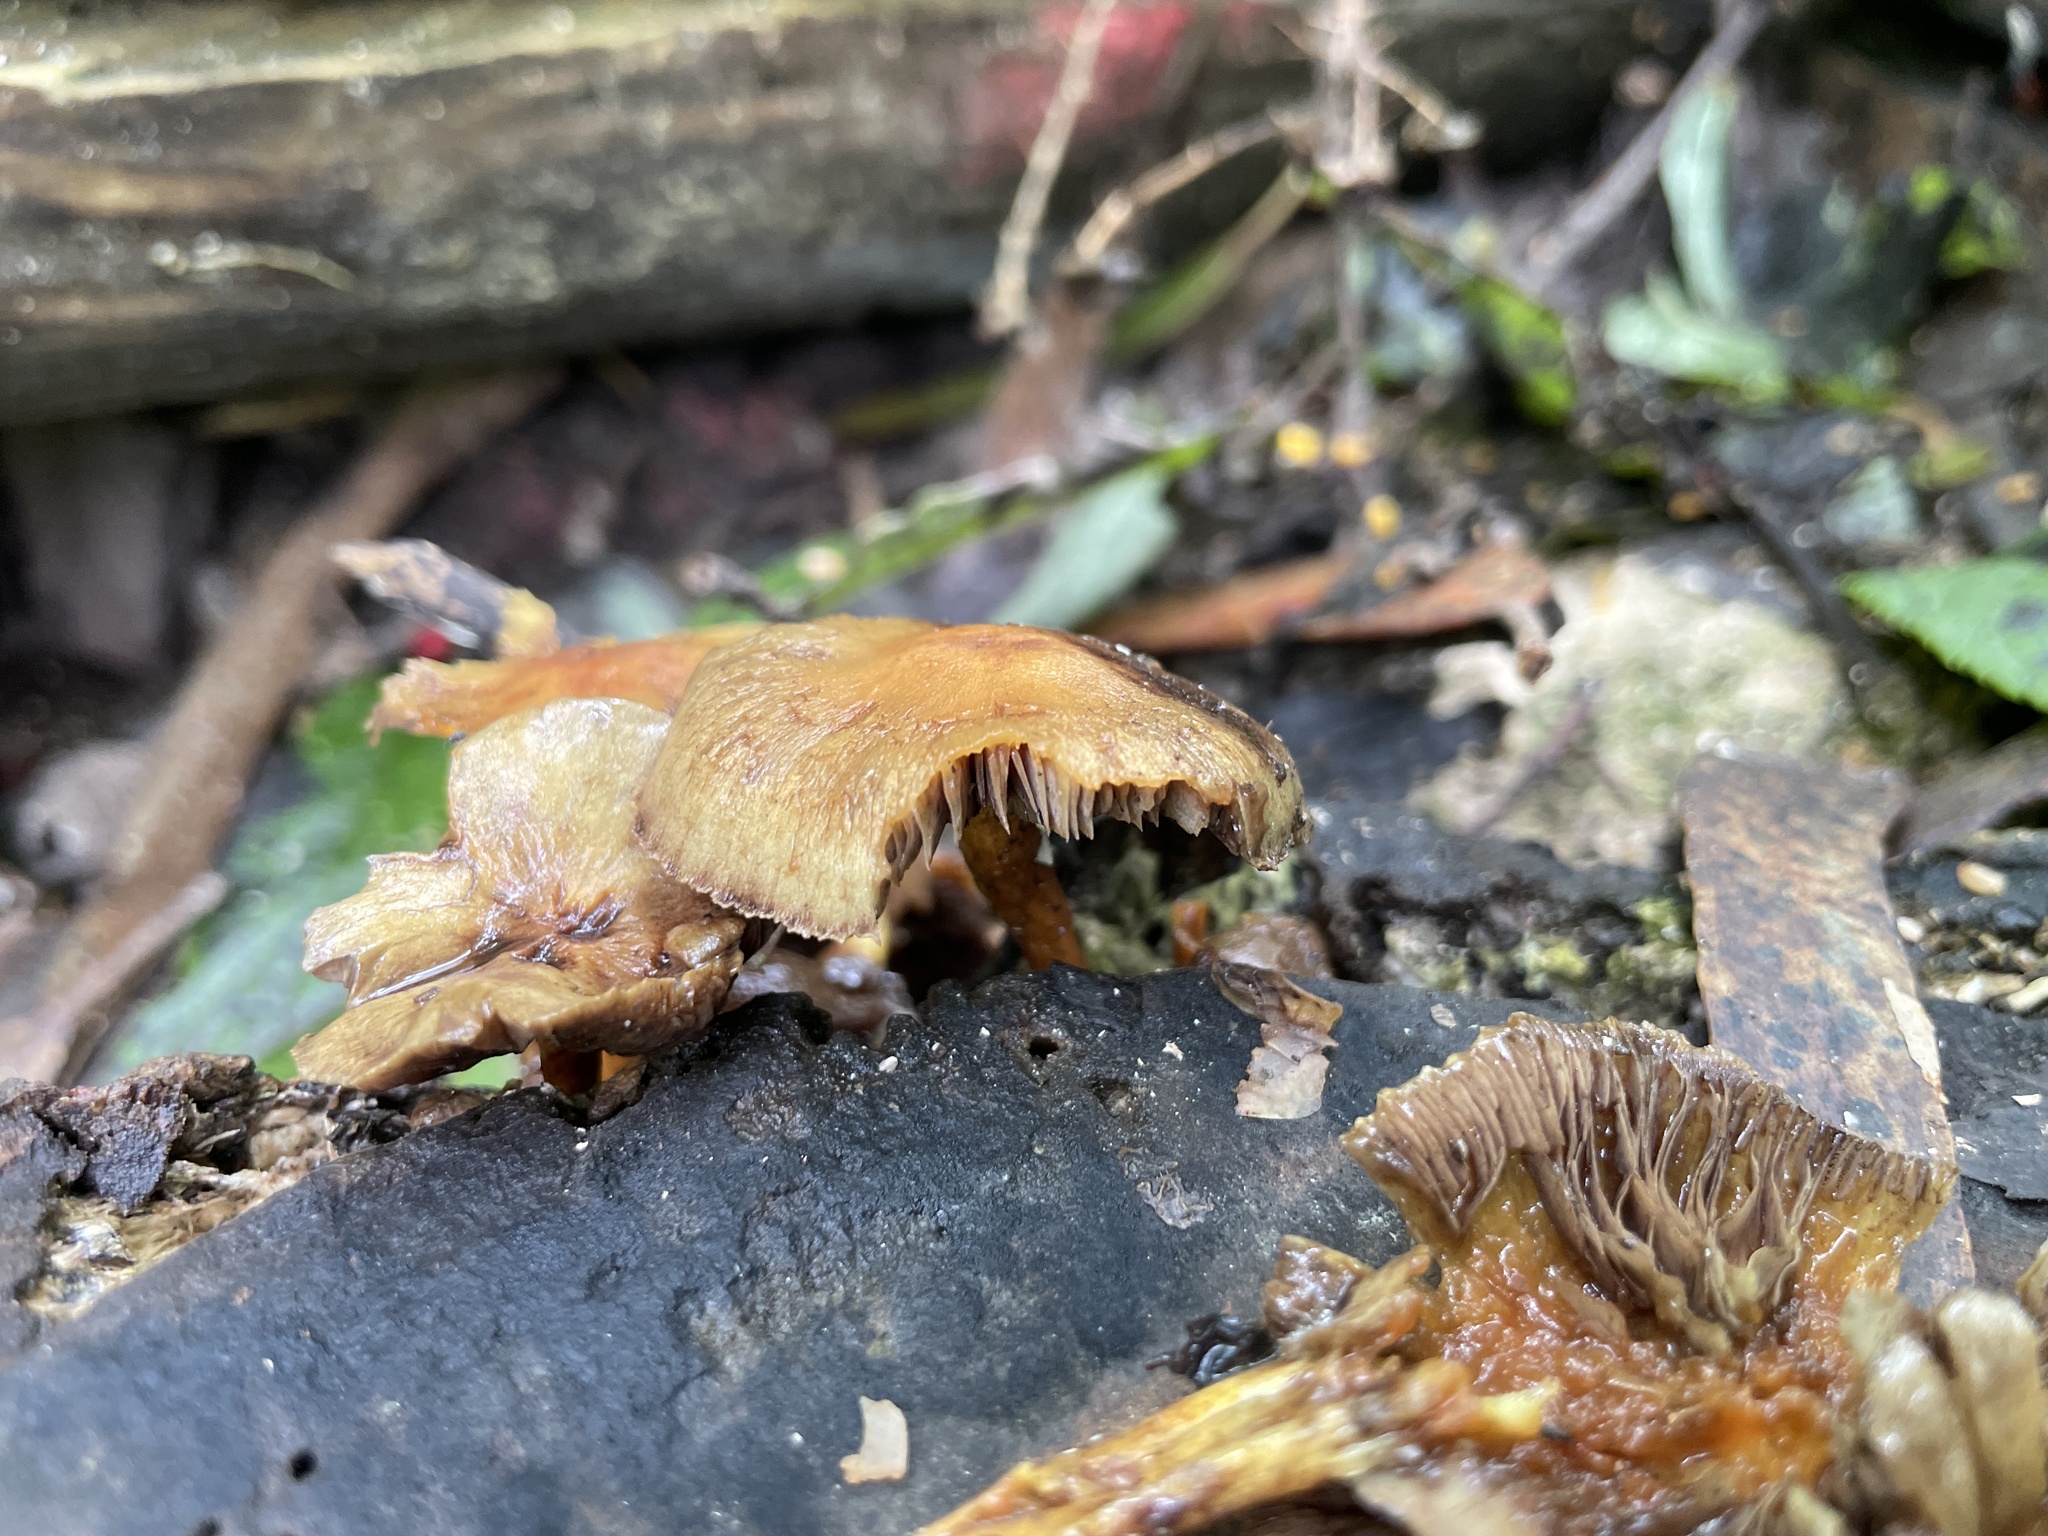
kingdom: Fungi
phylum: Basidiomycota
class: Agaricomycetes
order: Agaricales
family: Strophariaceae
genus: Hypholoma
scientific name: Hypholoma fasciculare
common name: Sulphur tuft
